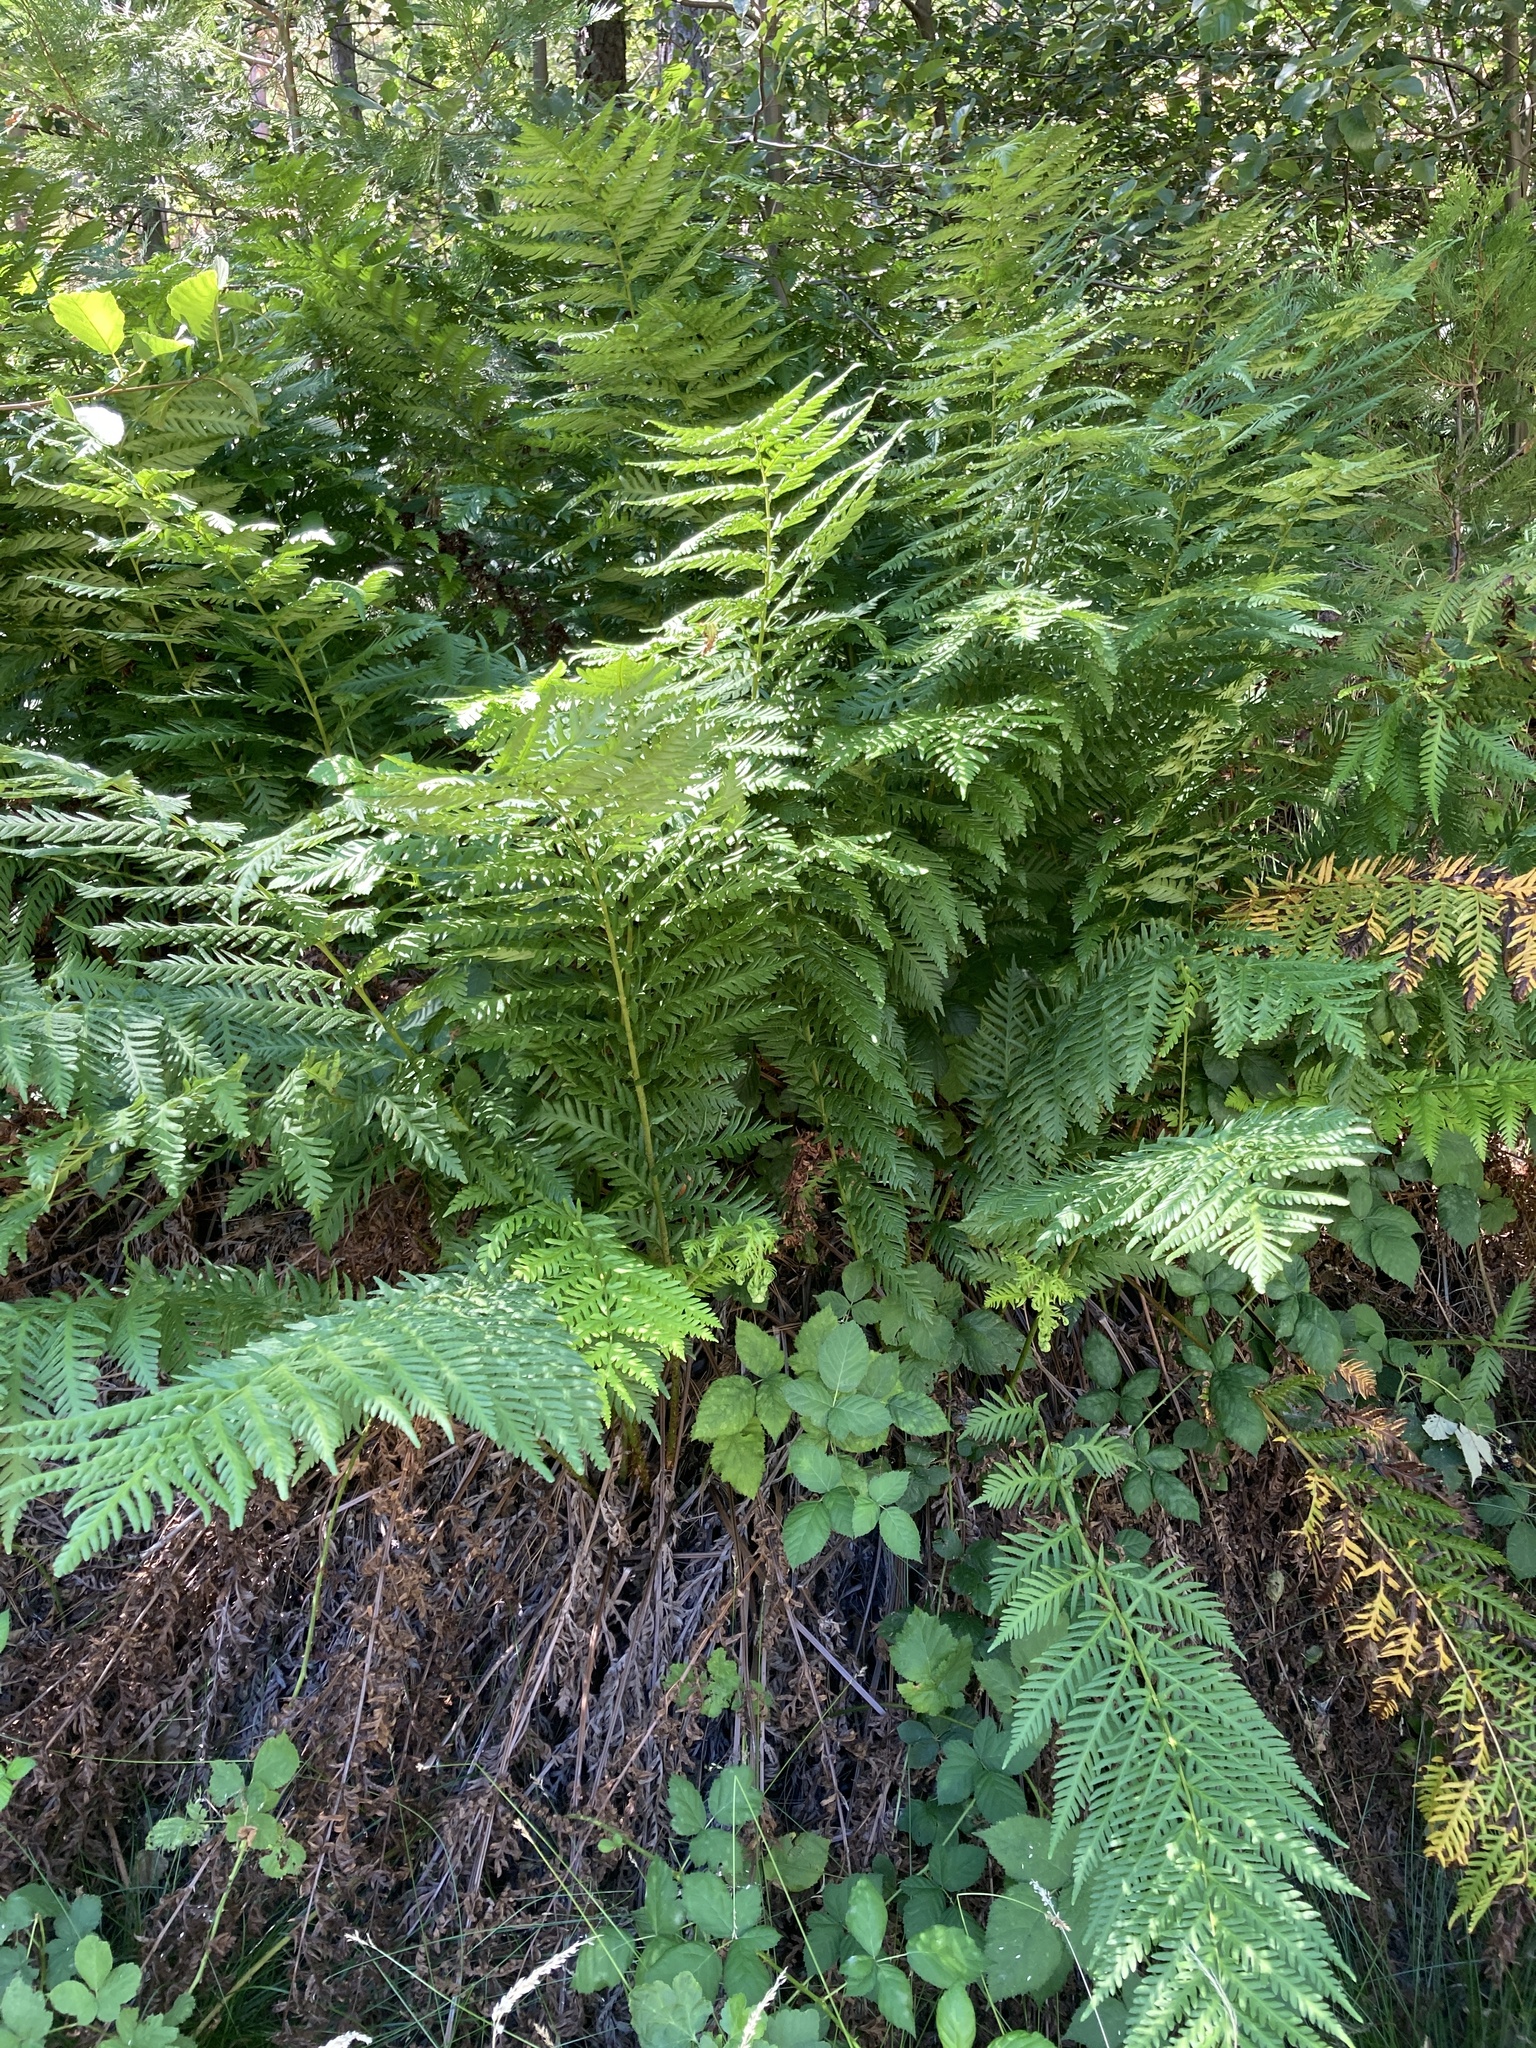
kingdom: Plantae
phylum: Tracheophyta
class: Polypodiopsida
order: Polypodiales
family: Blechnaceae
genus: Woodwardia
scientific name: Woodwardia fimbriata
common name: Giant chain fern
